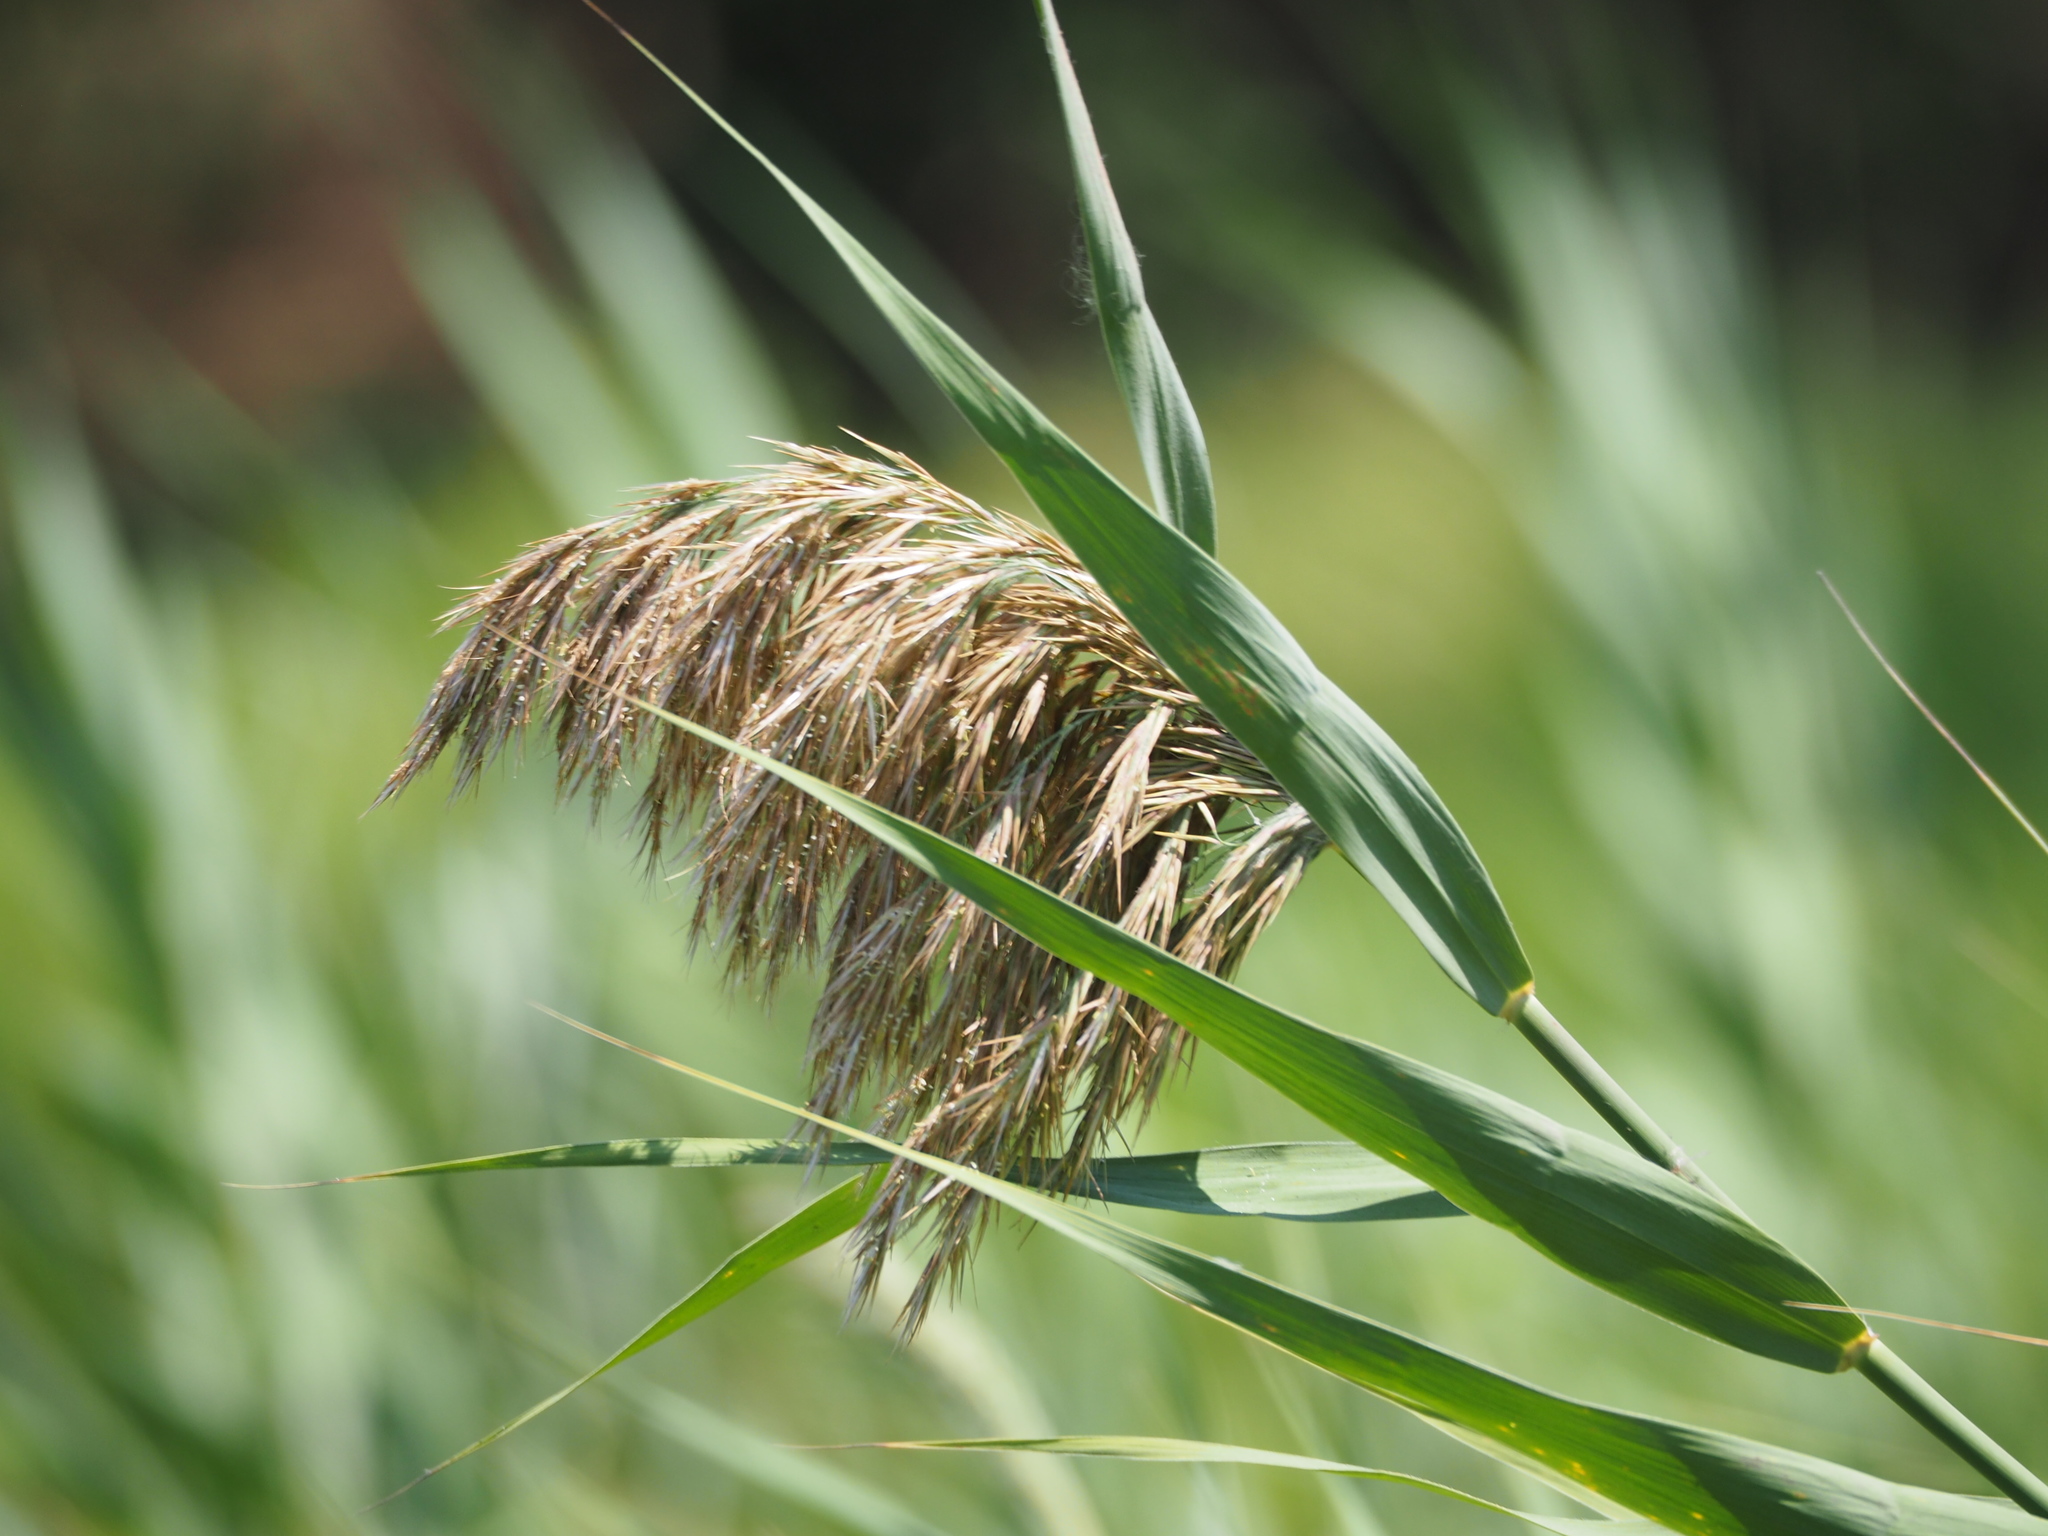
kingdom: Plantae
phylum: Tracheophyta
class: Liliopsida
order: Poales
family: Poaceae
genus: Phragmites
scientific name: Phragmites australis
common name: Common reed
